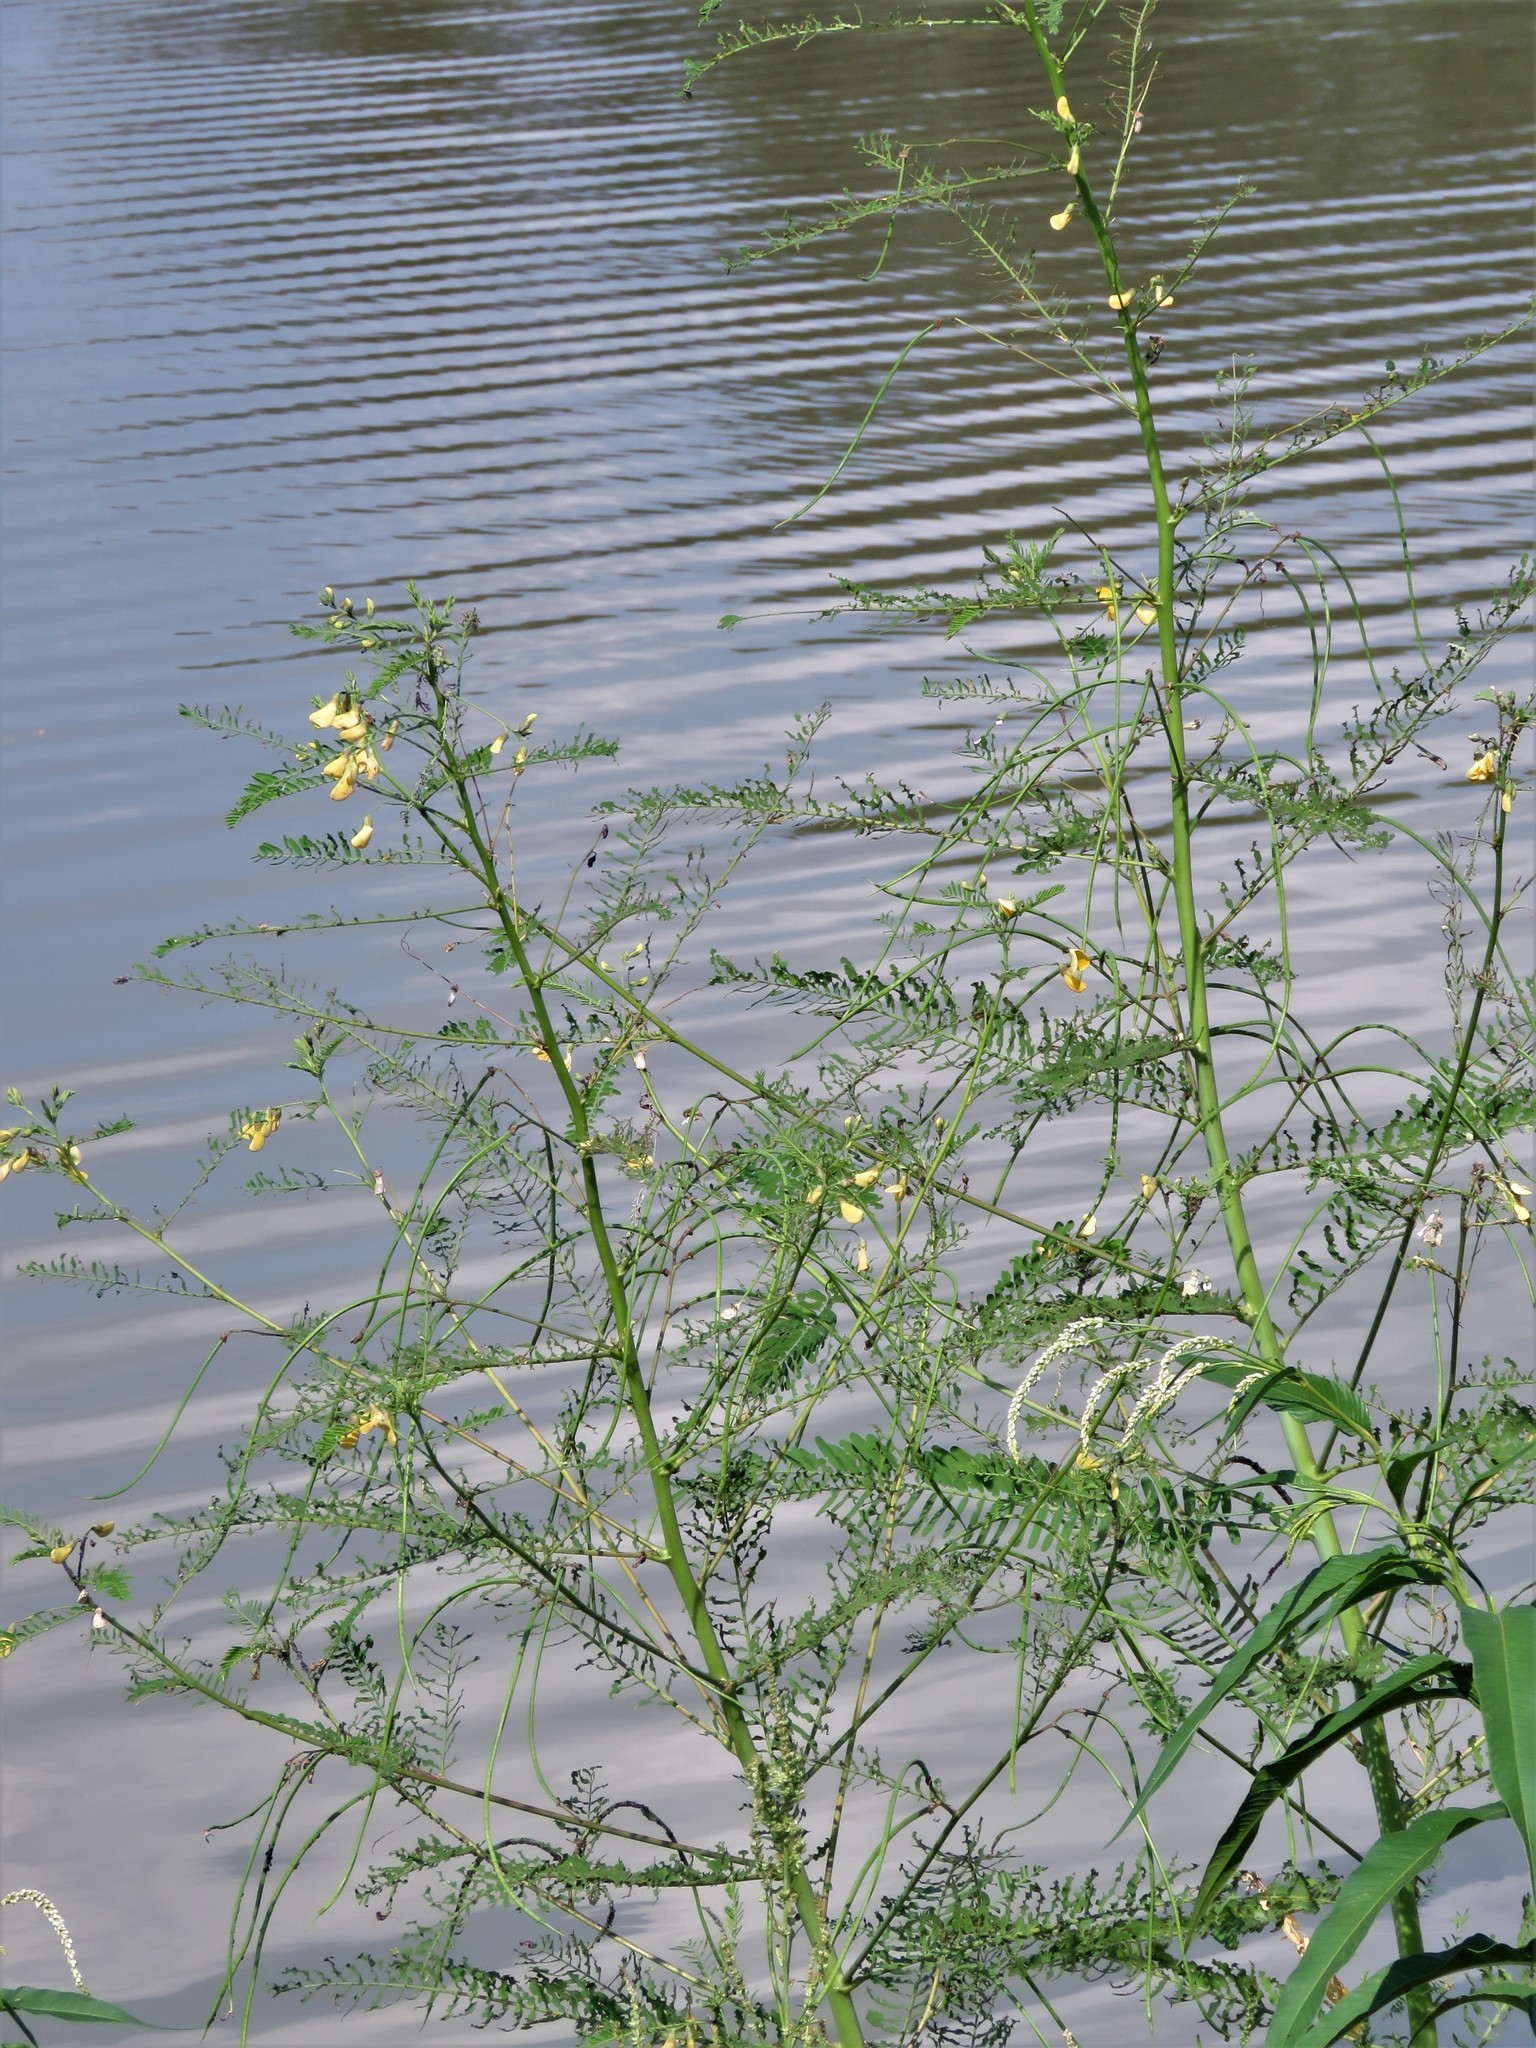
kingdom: Plantae
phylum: Tracheophyta
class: Magnoliopsida
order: Fabales
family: Fabaceae
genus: Sesbania
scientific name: Sesbania herbacea
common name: Bigpod sesbania
